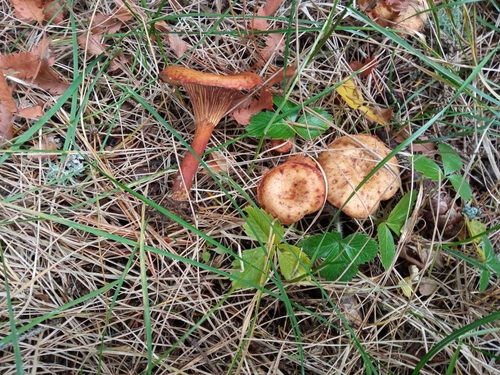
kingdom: Fungi
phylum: Basidiomycota
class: Agaricomycetes
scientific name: Agaricomycetes
